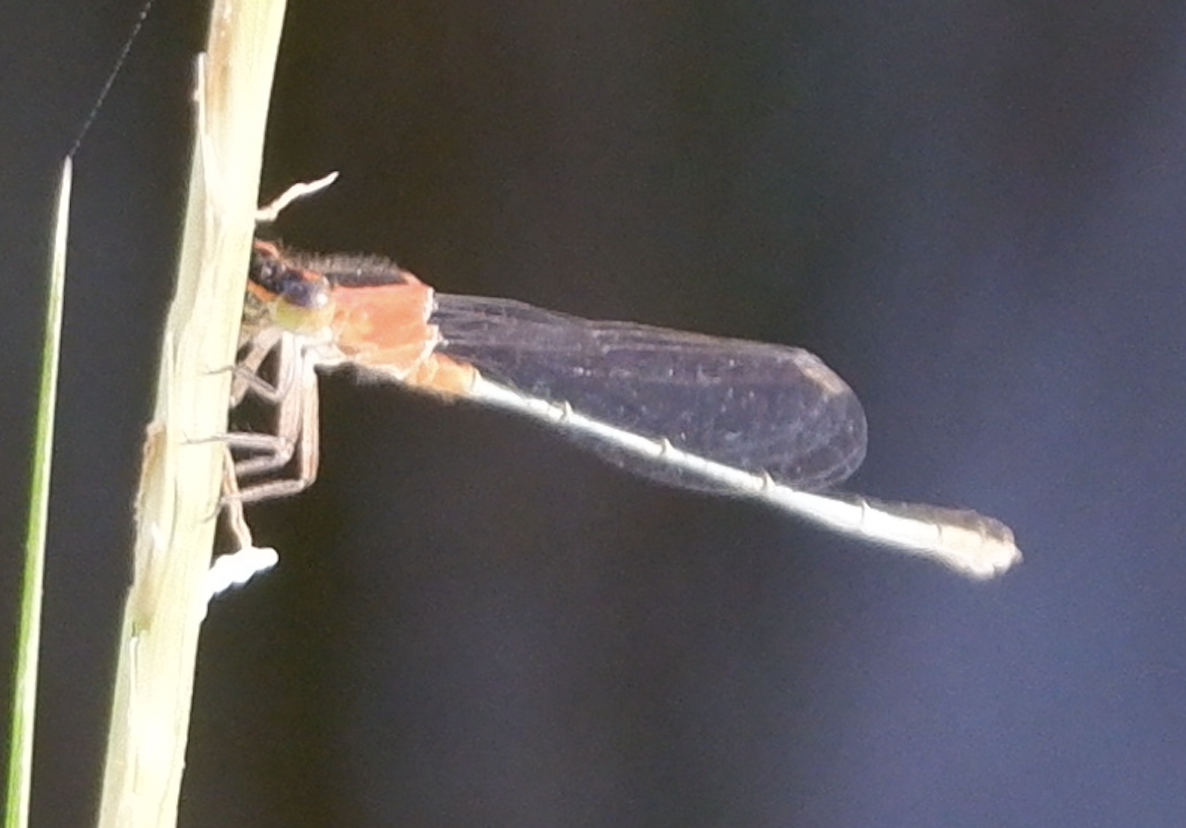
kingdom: Animalia
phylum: Arthropoda
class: Insecta
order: Odonata
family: Coenagrionidae
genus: Ischnura
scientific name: Ischnura ramburii
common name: Rambur's forktail
